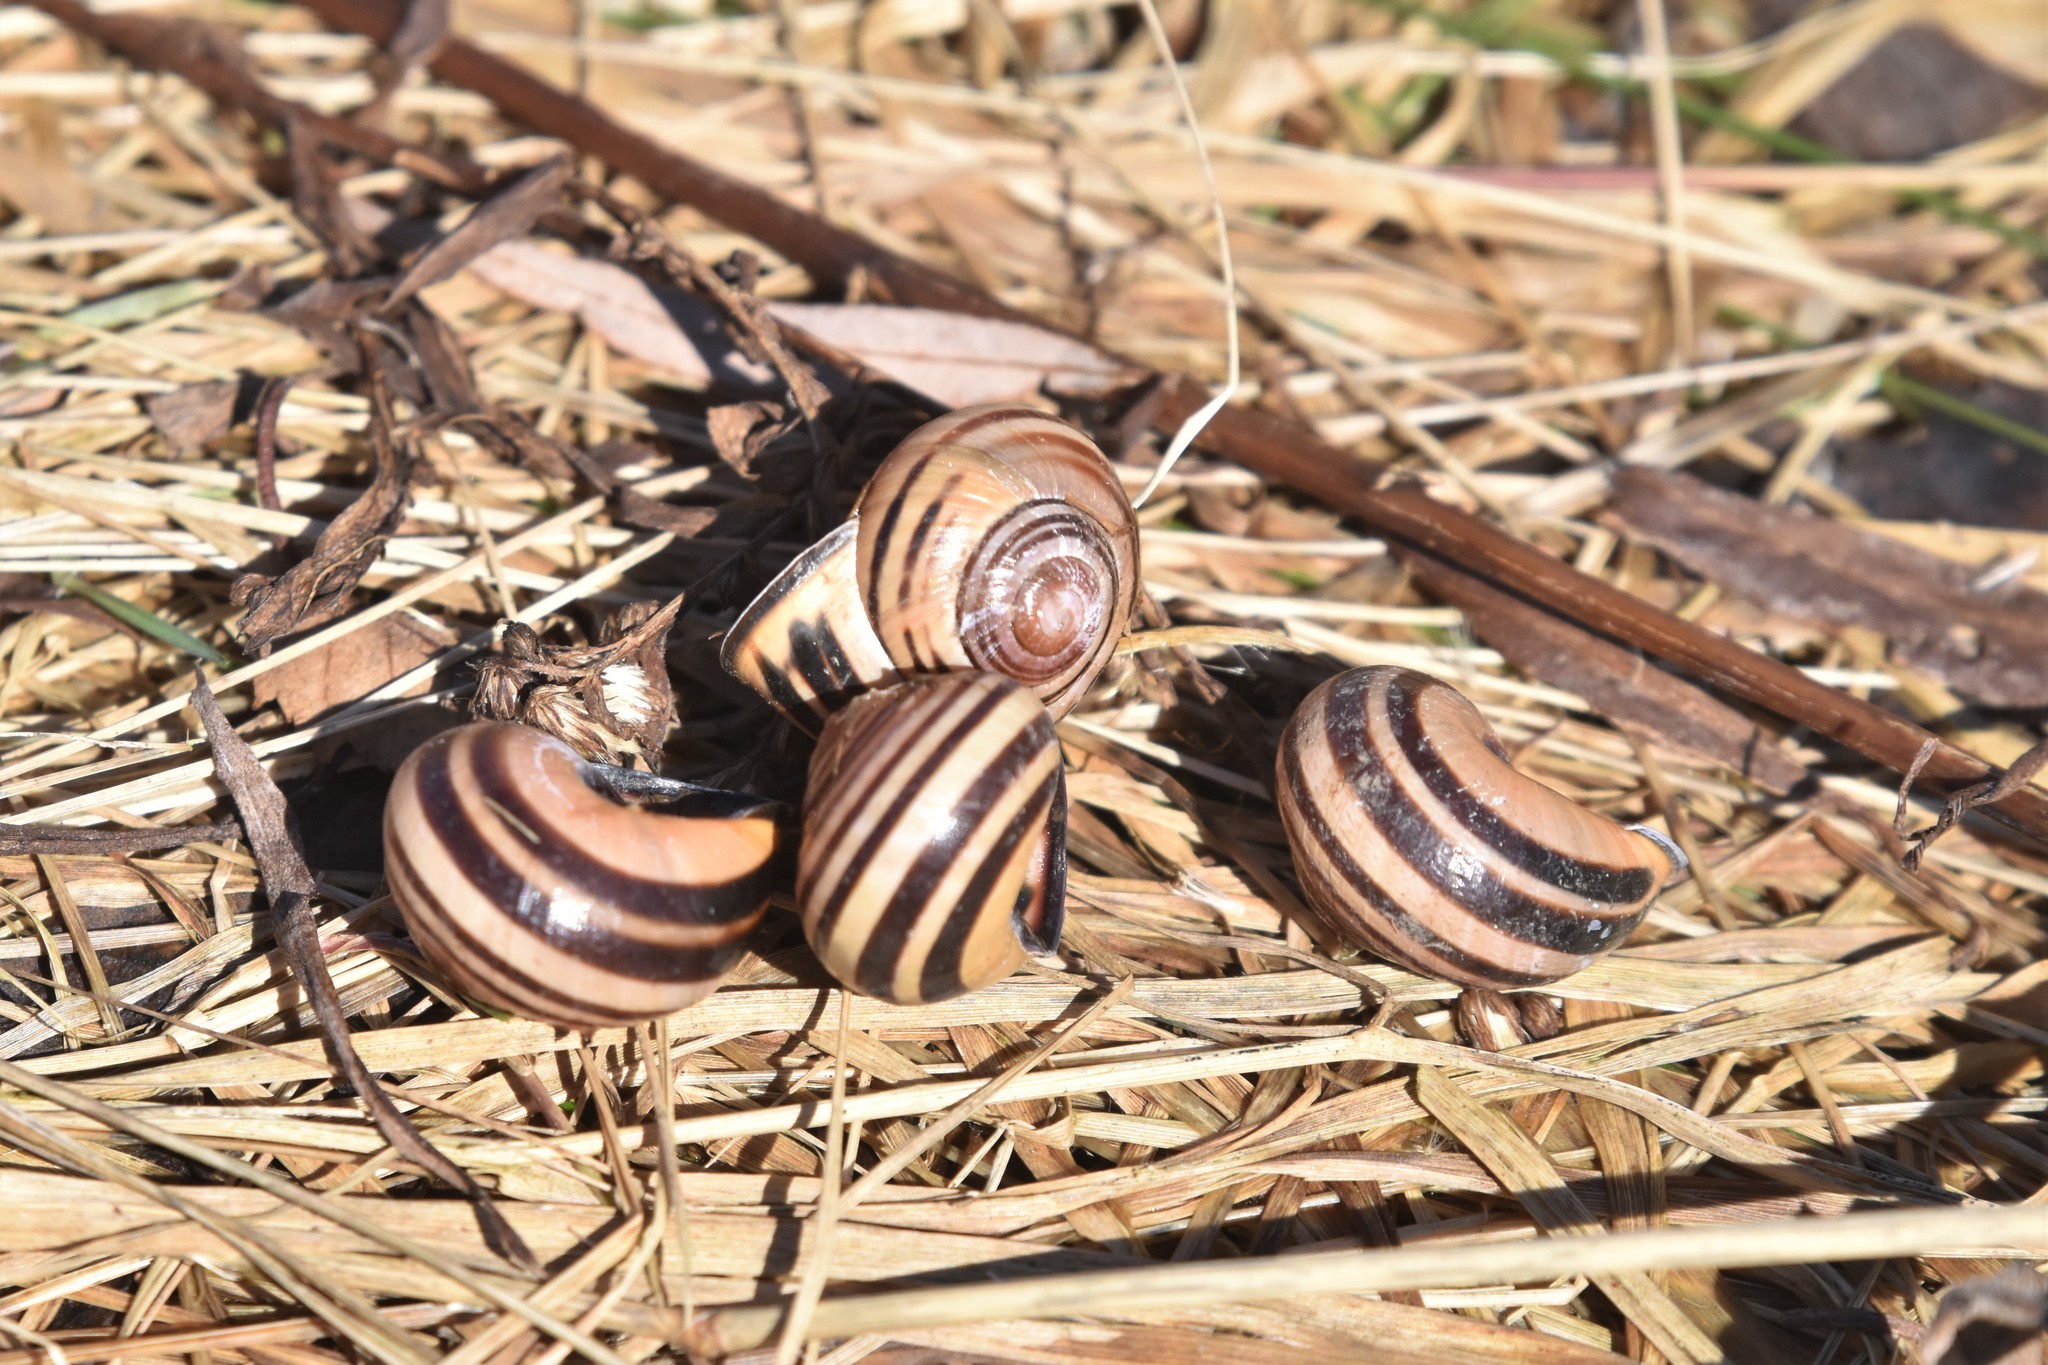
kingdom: Animalia
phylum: Mollusca
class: Gastropoda
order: Stylommatophora
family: Helicidae
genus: Cepaea
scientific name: Cepaea nemoralis
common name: Grovesnail
